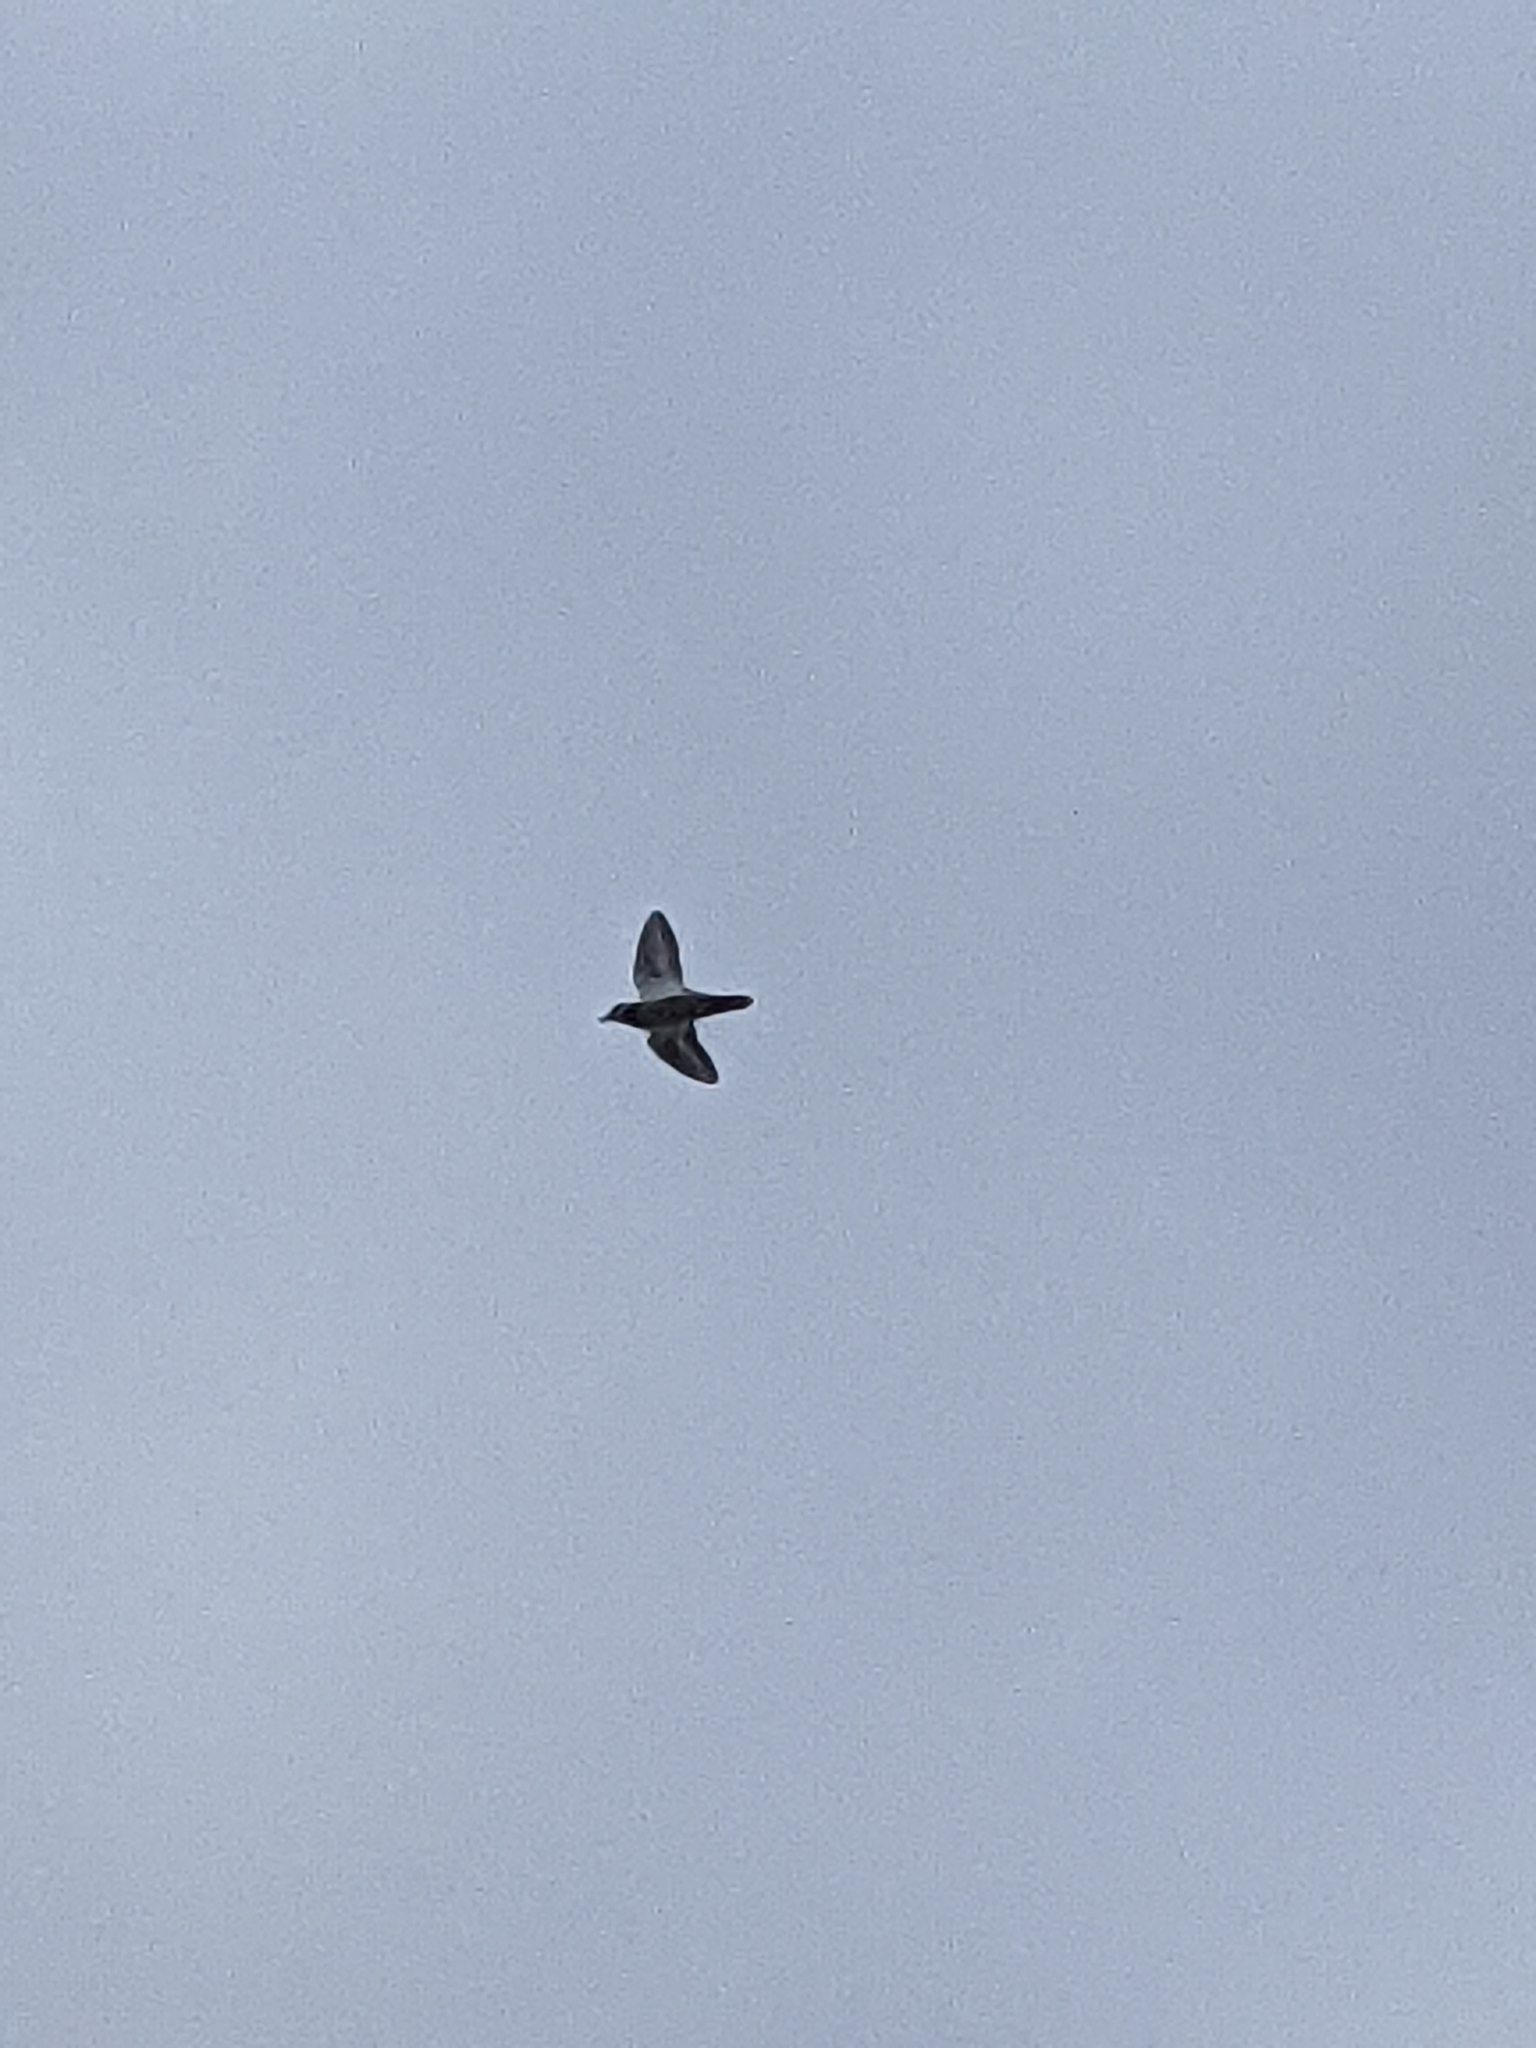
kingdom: Animalia
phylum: Chordata
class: Aves
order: Charadriiformes
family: Charadriidae
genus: Charadrius
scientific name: Charadrius vociferus
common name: Killdeer
